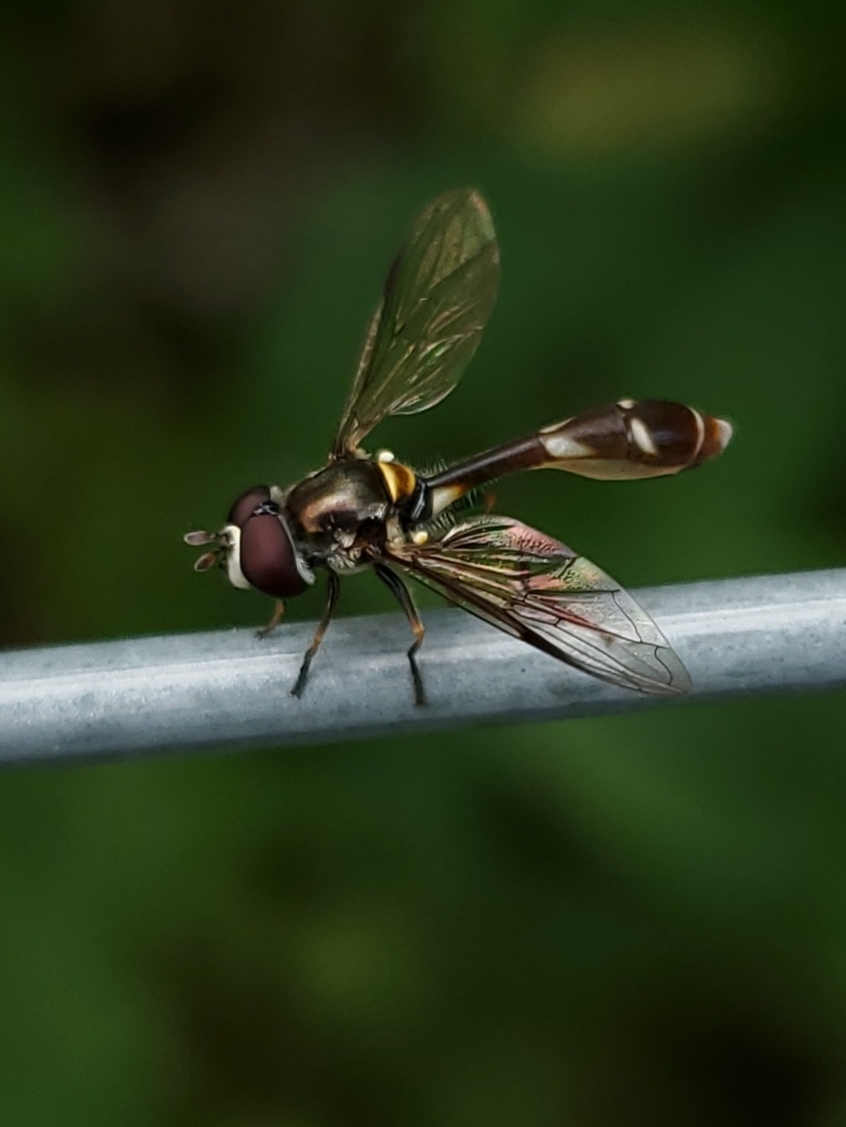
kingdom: Animalia
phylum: Arthropoda
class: Insecta
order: Diptera
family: Syrphidae
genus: Dioprosopa
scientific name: Dioprosopa clavatus
